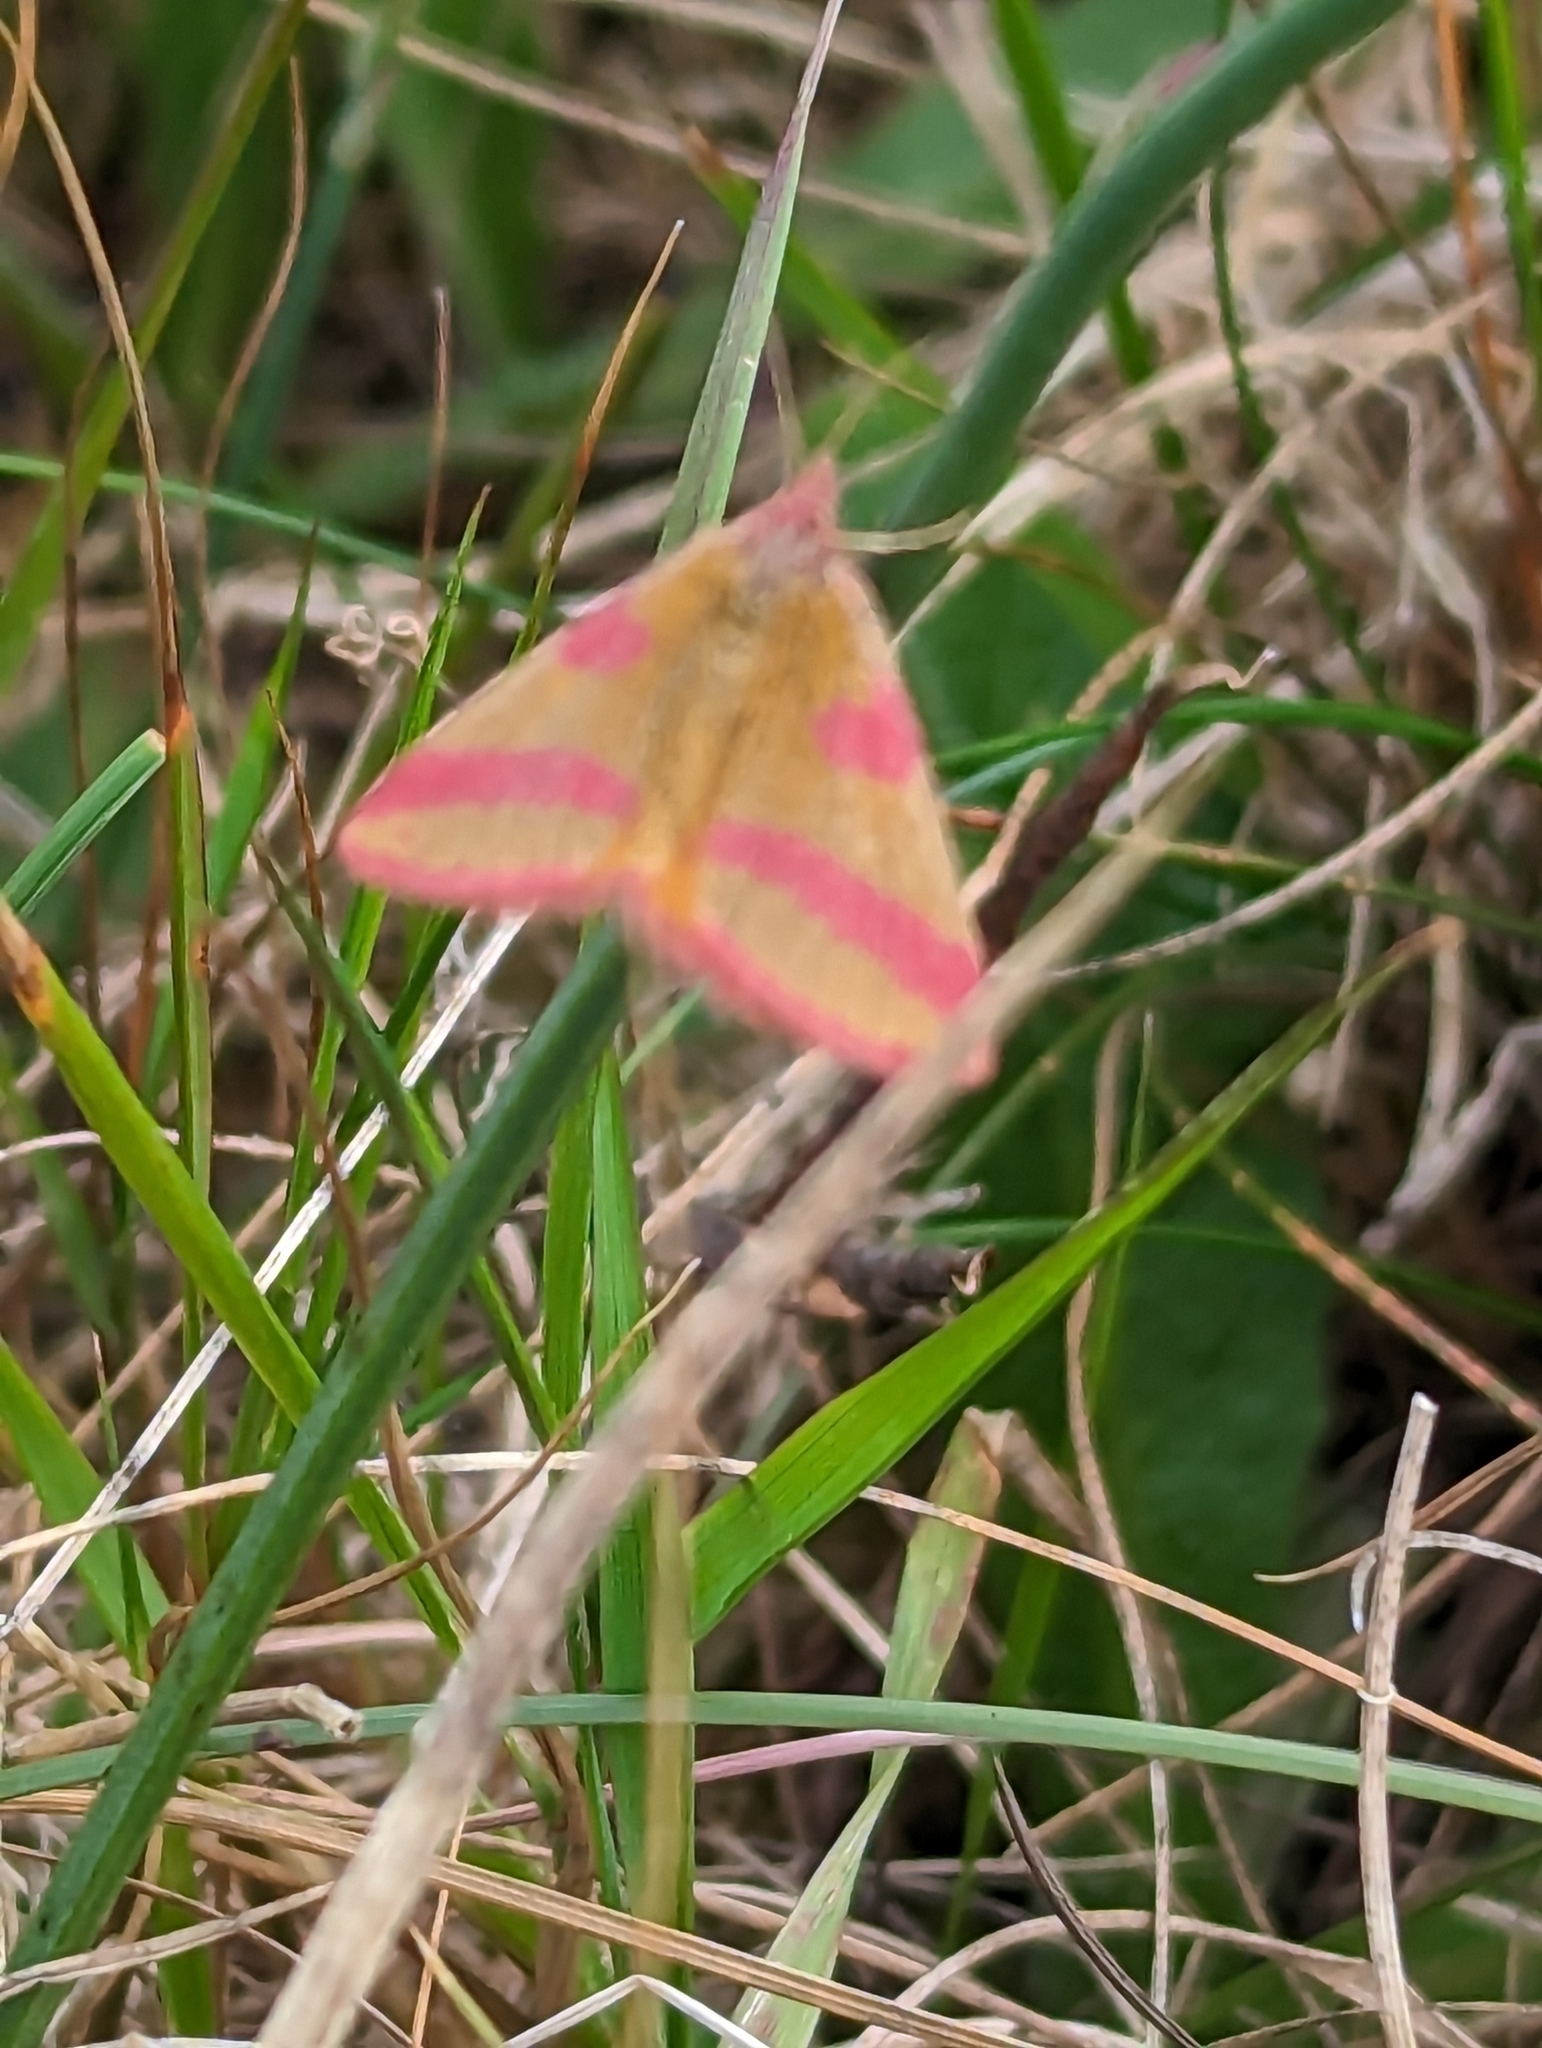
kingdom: Animalia
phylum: Arthropoda
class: Insecta
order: Lepidoptera
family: Geometridae
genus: Lythria
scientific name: Lythria cruentaria
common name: Purple-barred yellow
